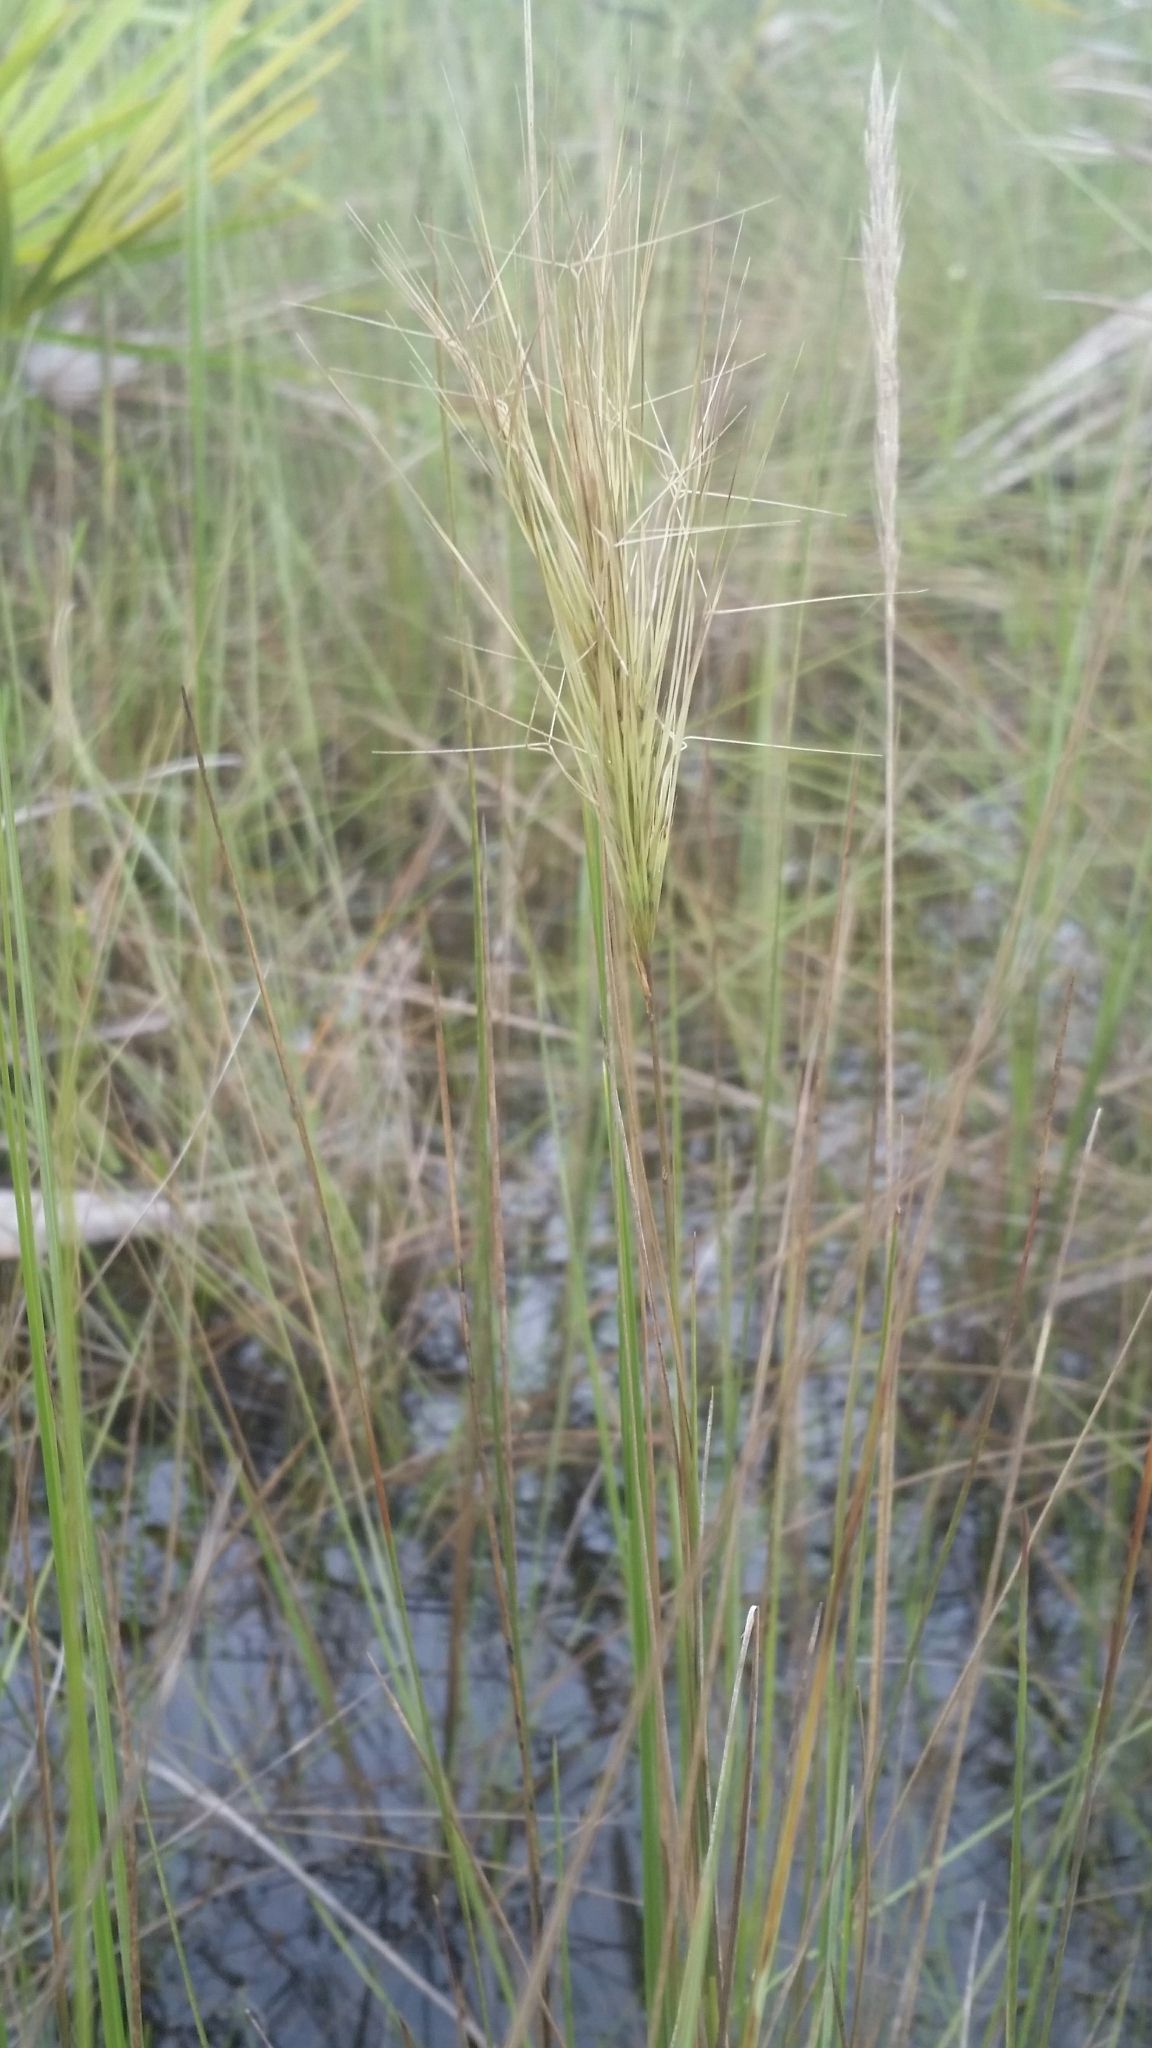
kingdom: Plantae
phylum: Tracheophyta
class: Liliopsida
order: Poales
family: Poaceae
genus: Aristida
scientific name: Aristida spiciformis
